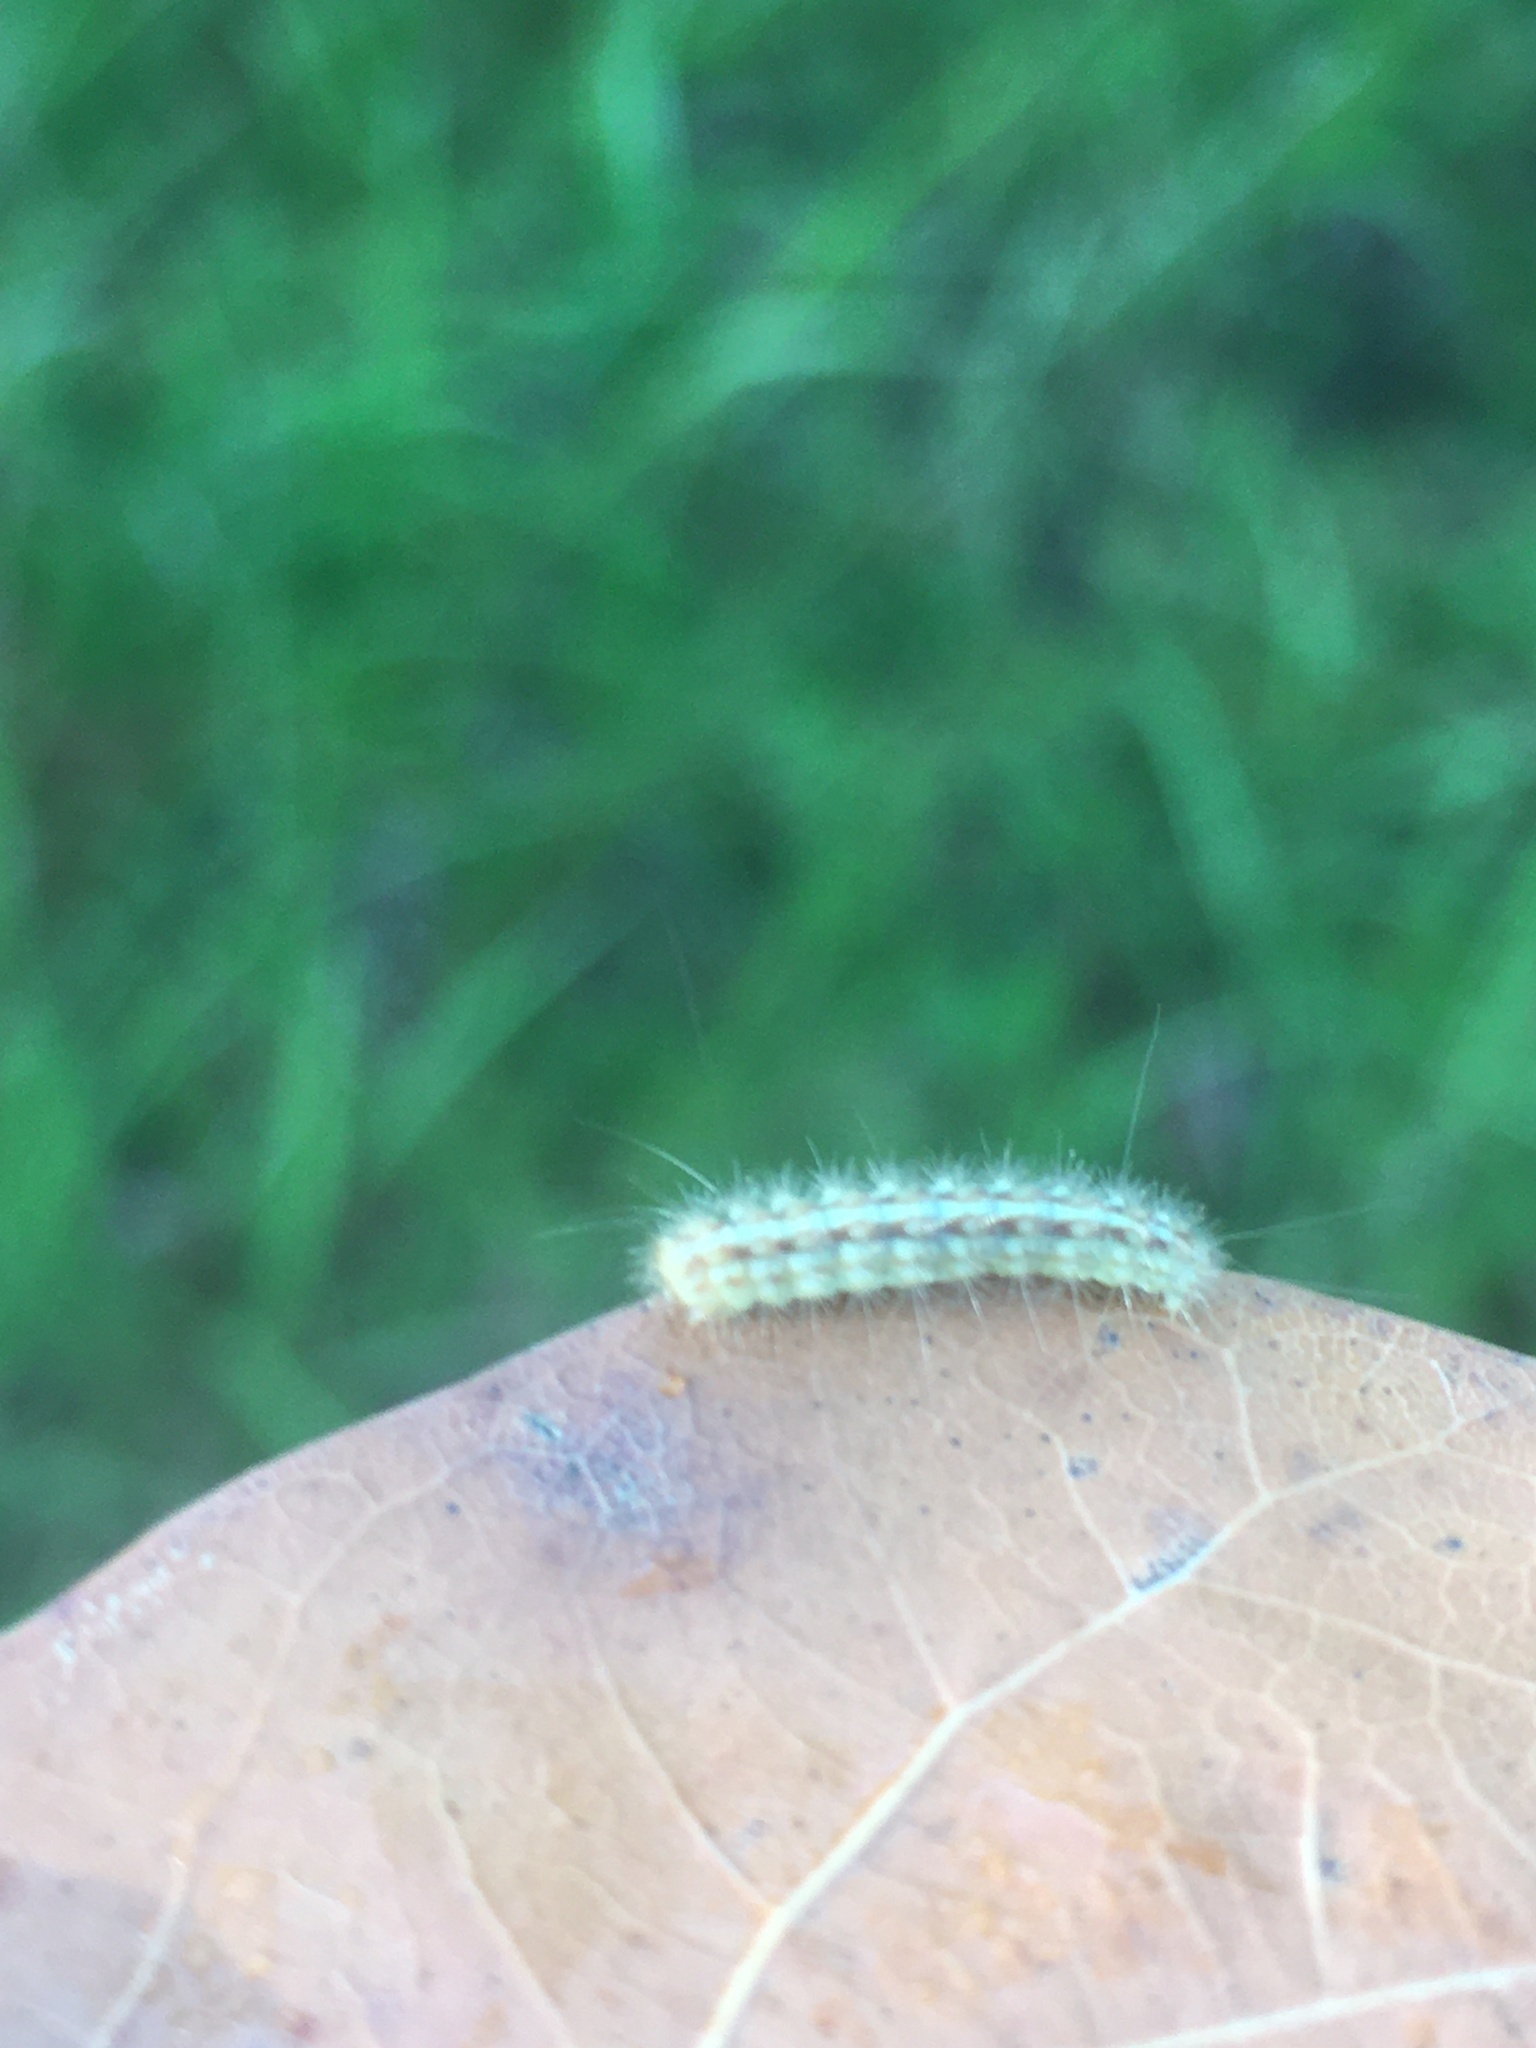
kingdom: Animalia
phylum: Arthropoda
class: Insecta
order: Lepidoptera
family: Erebidae
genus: Hyphantria
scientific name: Hyphantria cunea
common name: American white moth
